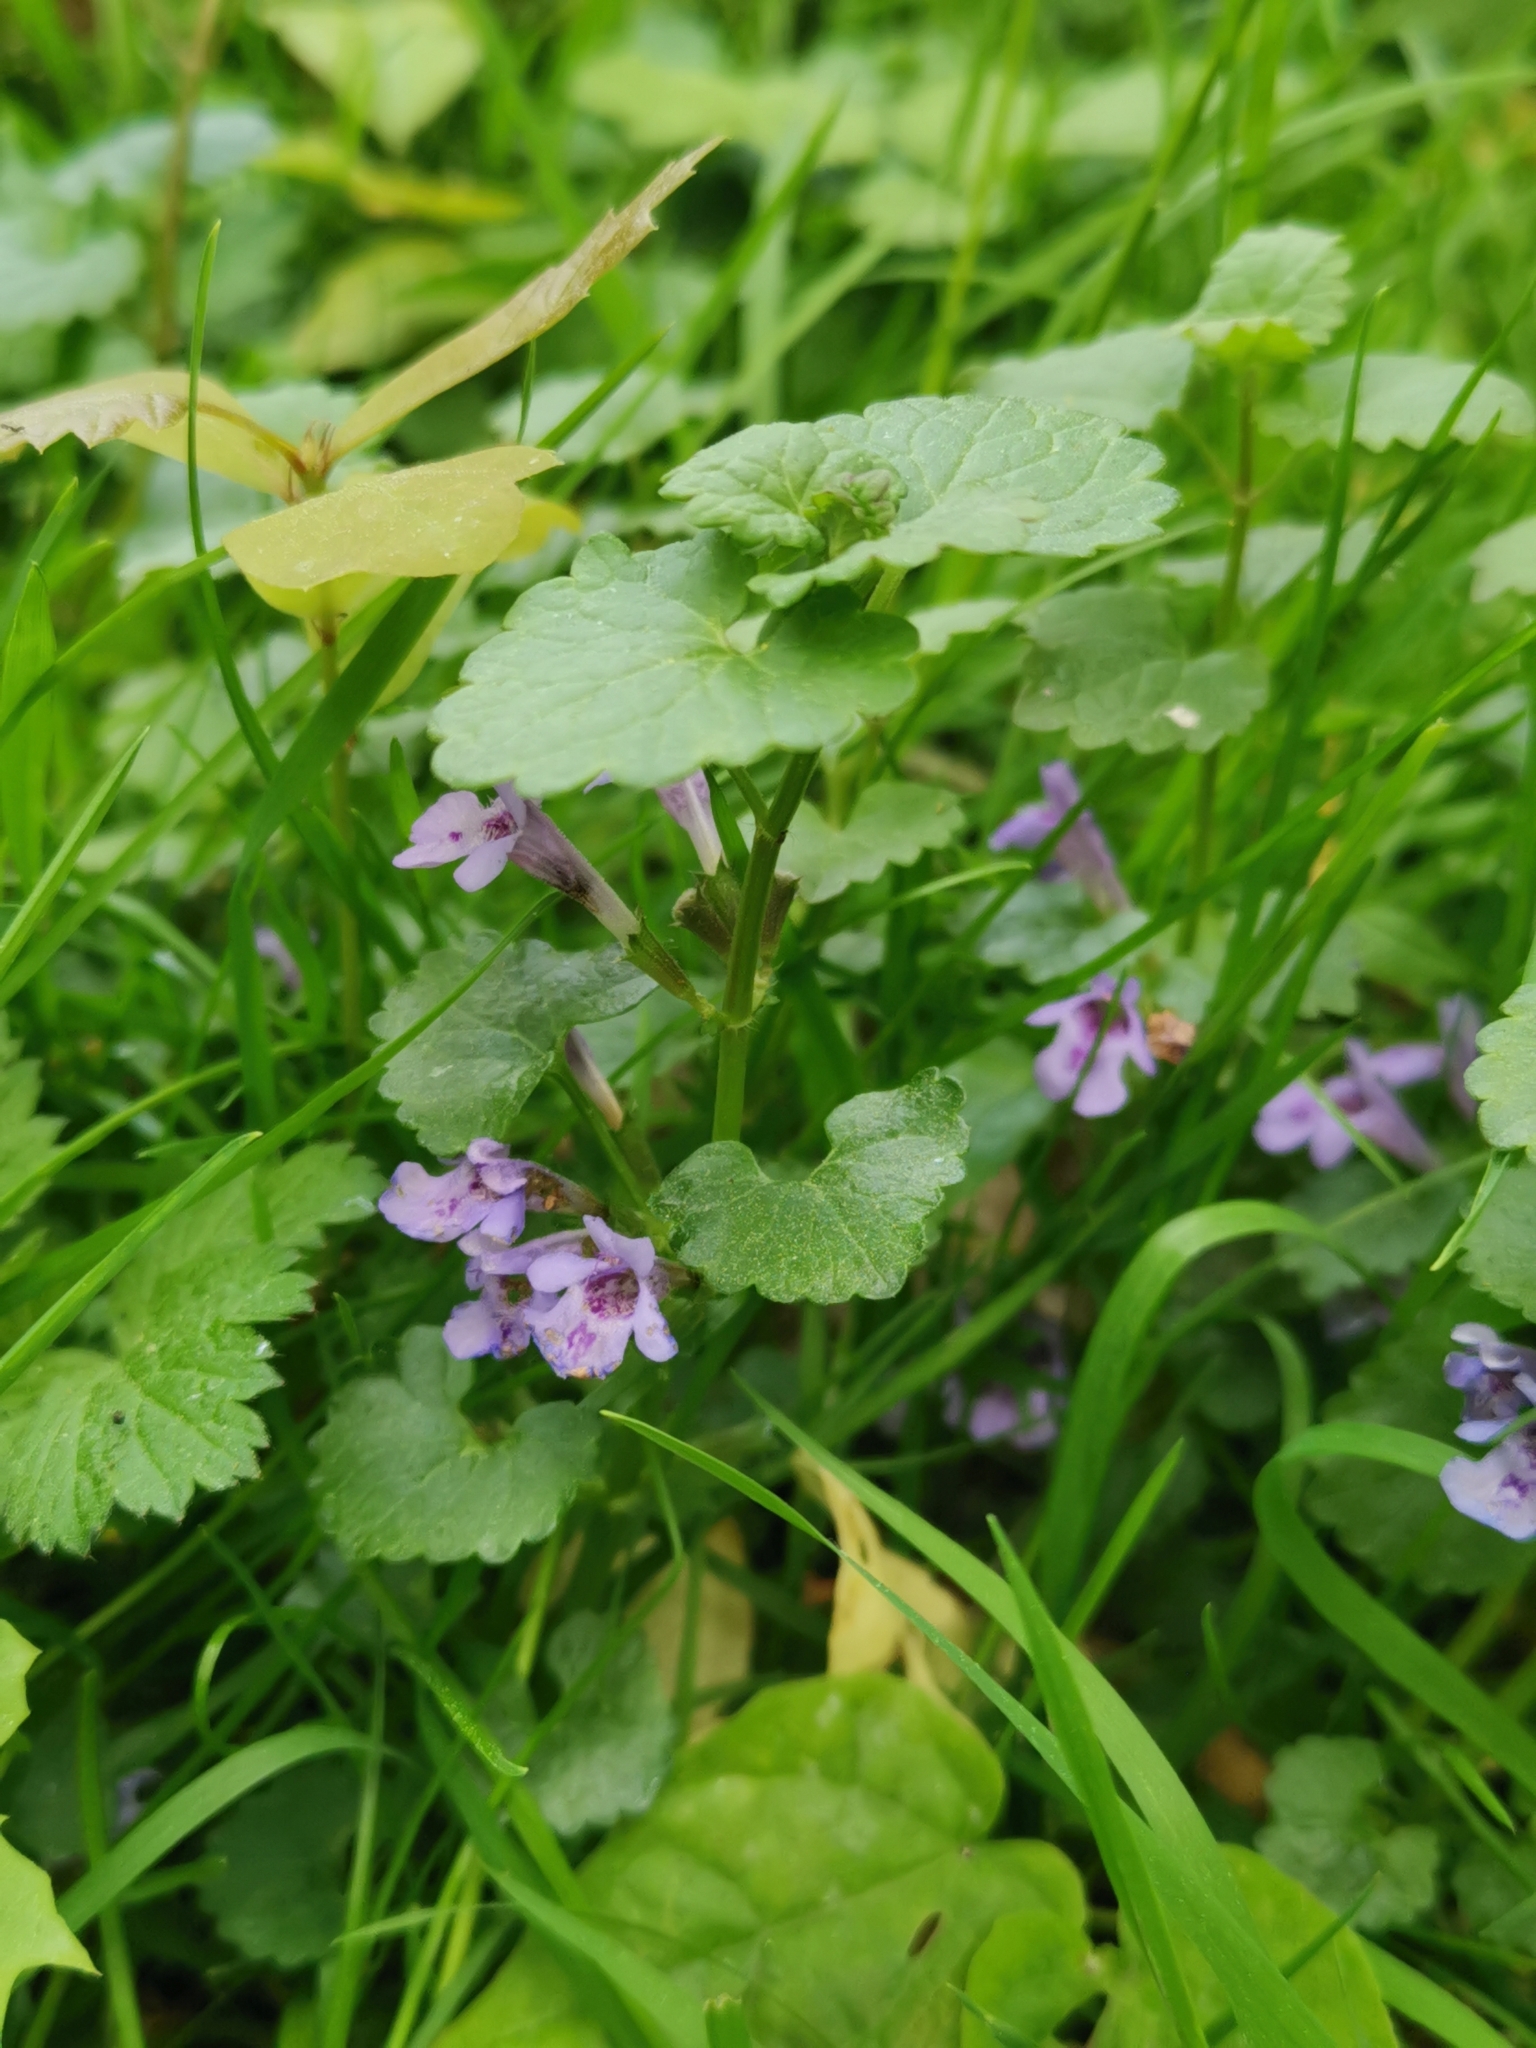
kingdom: Plantae
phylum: Tracheophyta
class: Magnoliopsida
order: Lamiales
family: Lamiaceae
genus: Glechoma
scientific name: Glechoma hederacea
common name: Ground ivy
